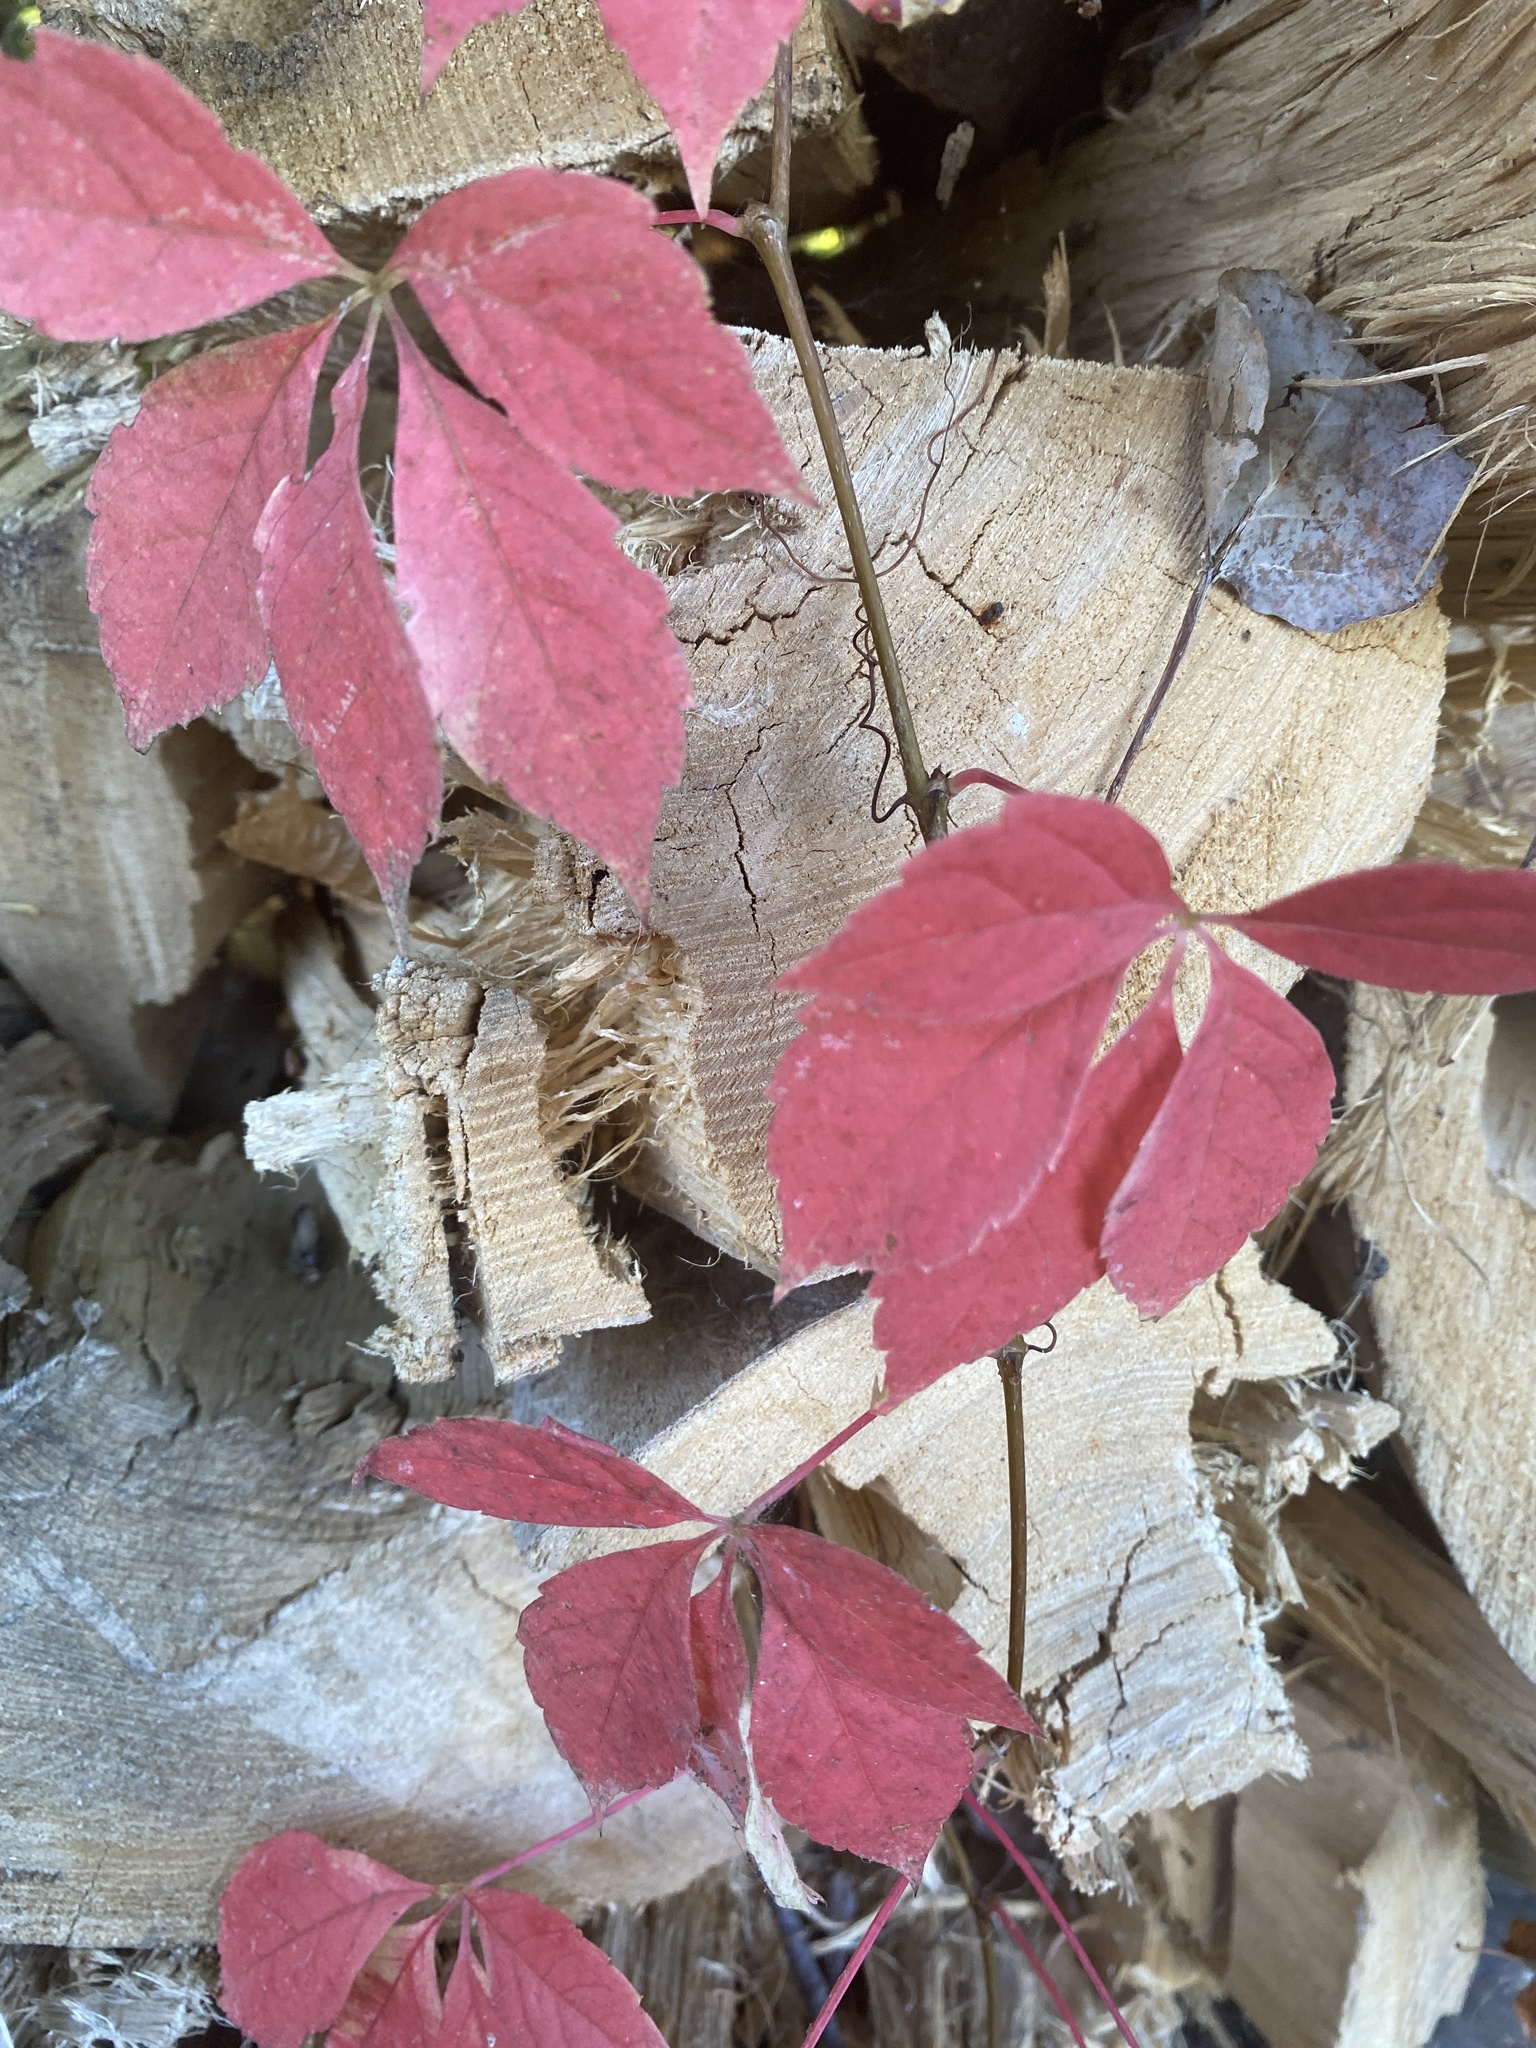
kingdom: Plantae
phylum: Tracheophyta
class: Magnoliopsida
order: Vitales
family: Vitaceae
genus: Parthenocissus
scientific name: Parthenocissus quinquefolia
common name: Virginia-creeper
